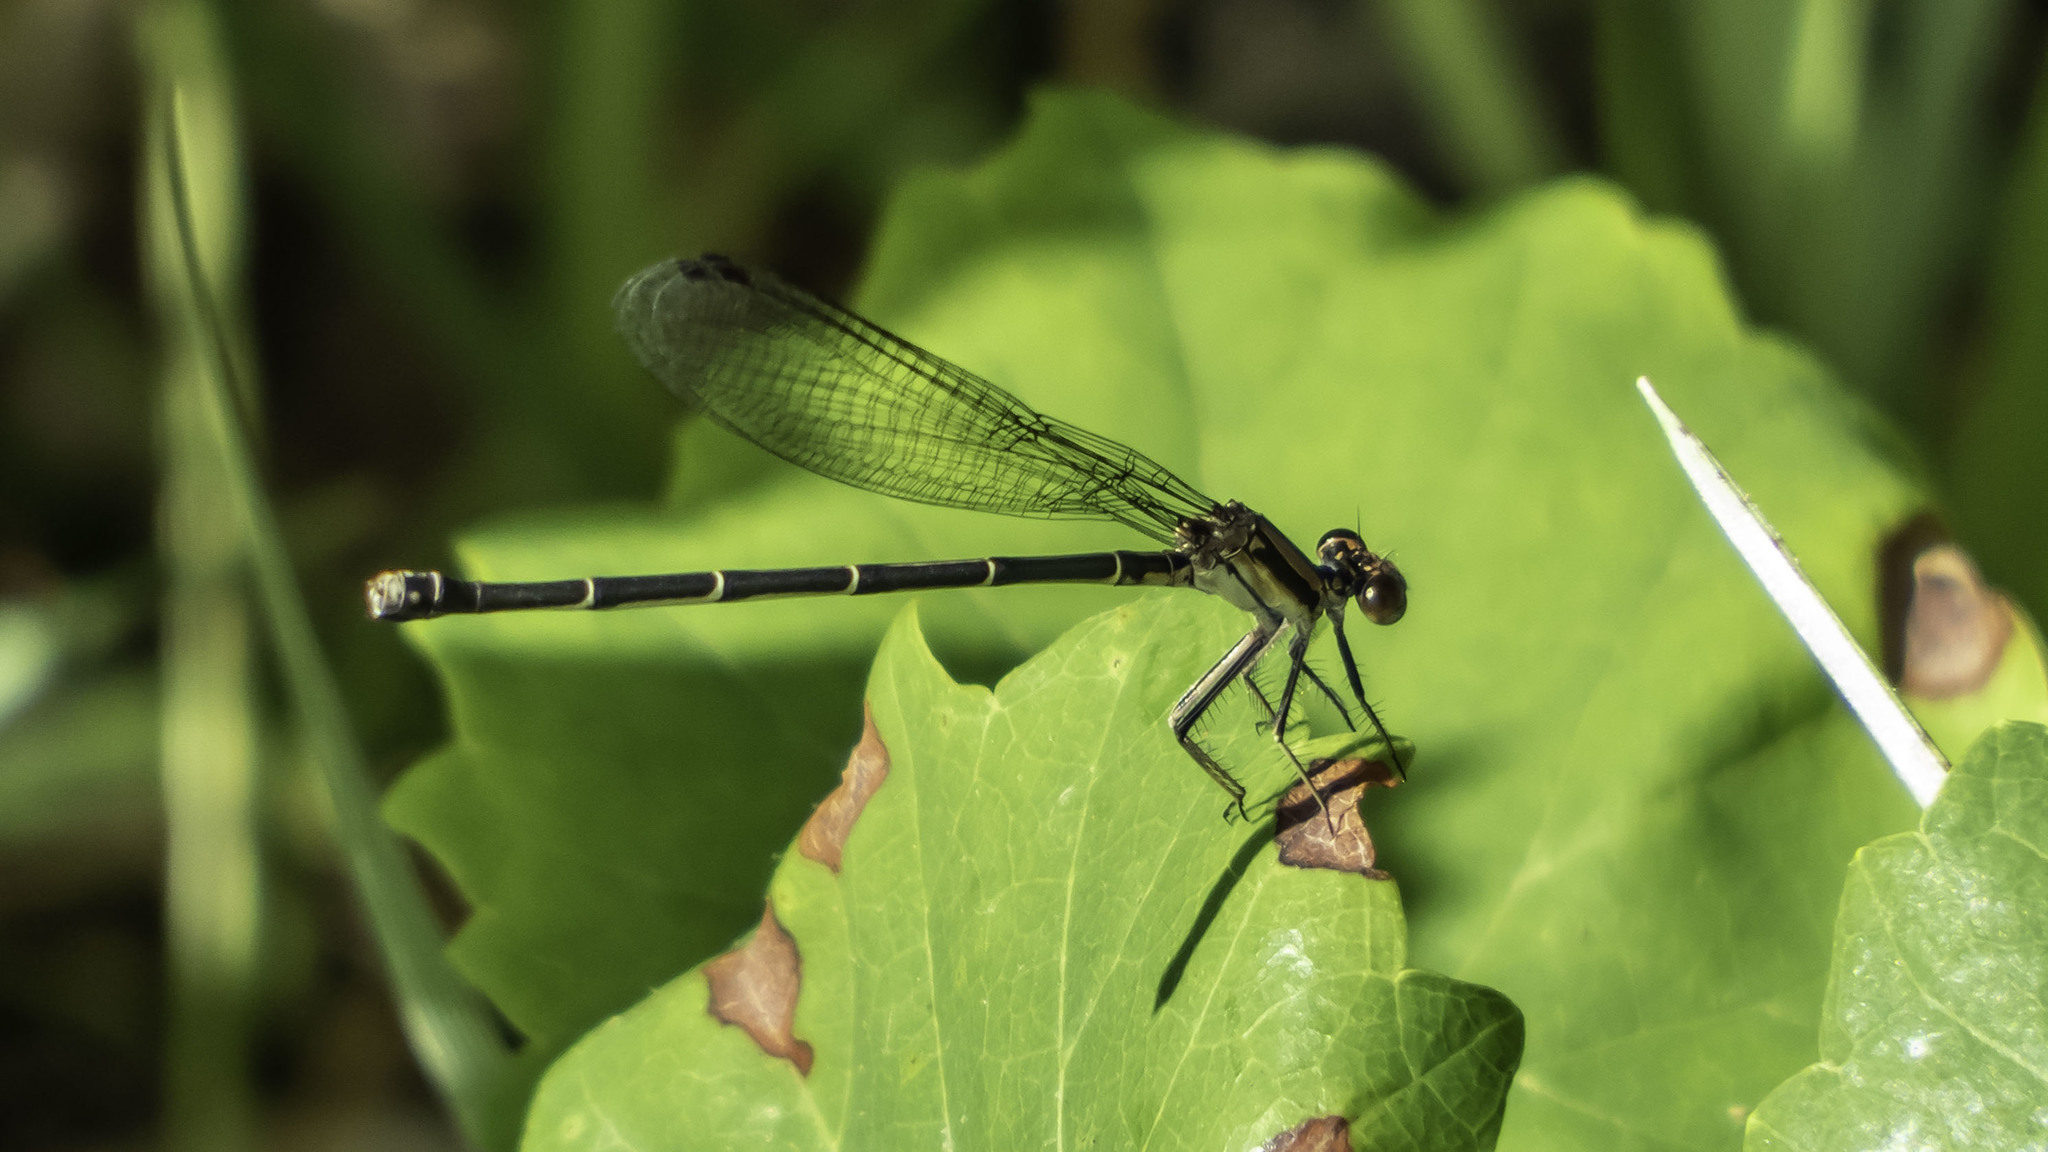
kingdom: Animalia
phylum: Arthropoda
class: Insecta
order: Odonata
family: Coenagrionidae
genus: Argia
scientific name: Argia tibialis
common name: Blue-tipped dancer
